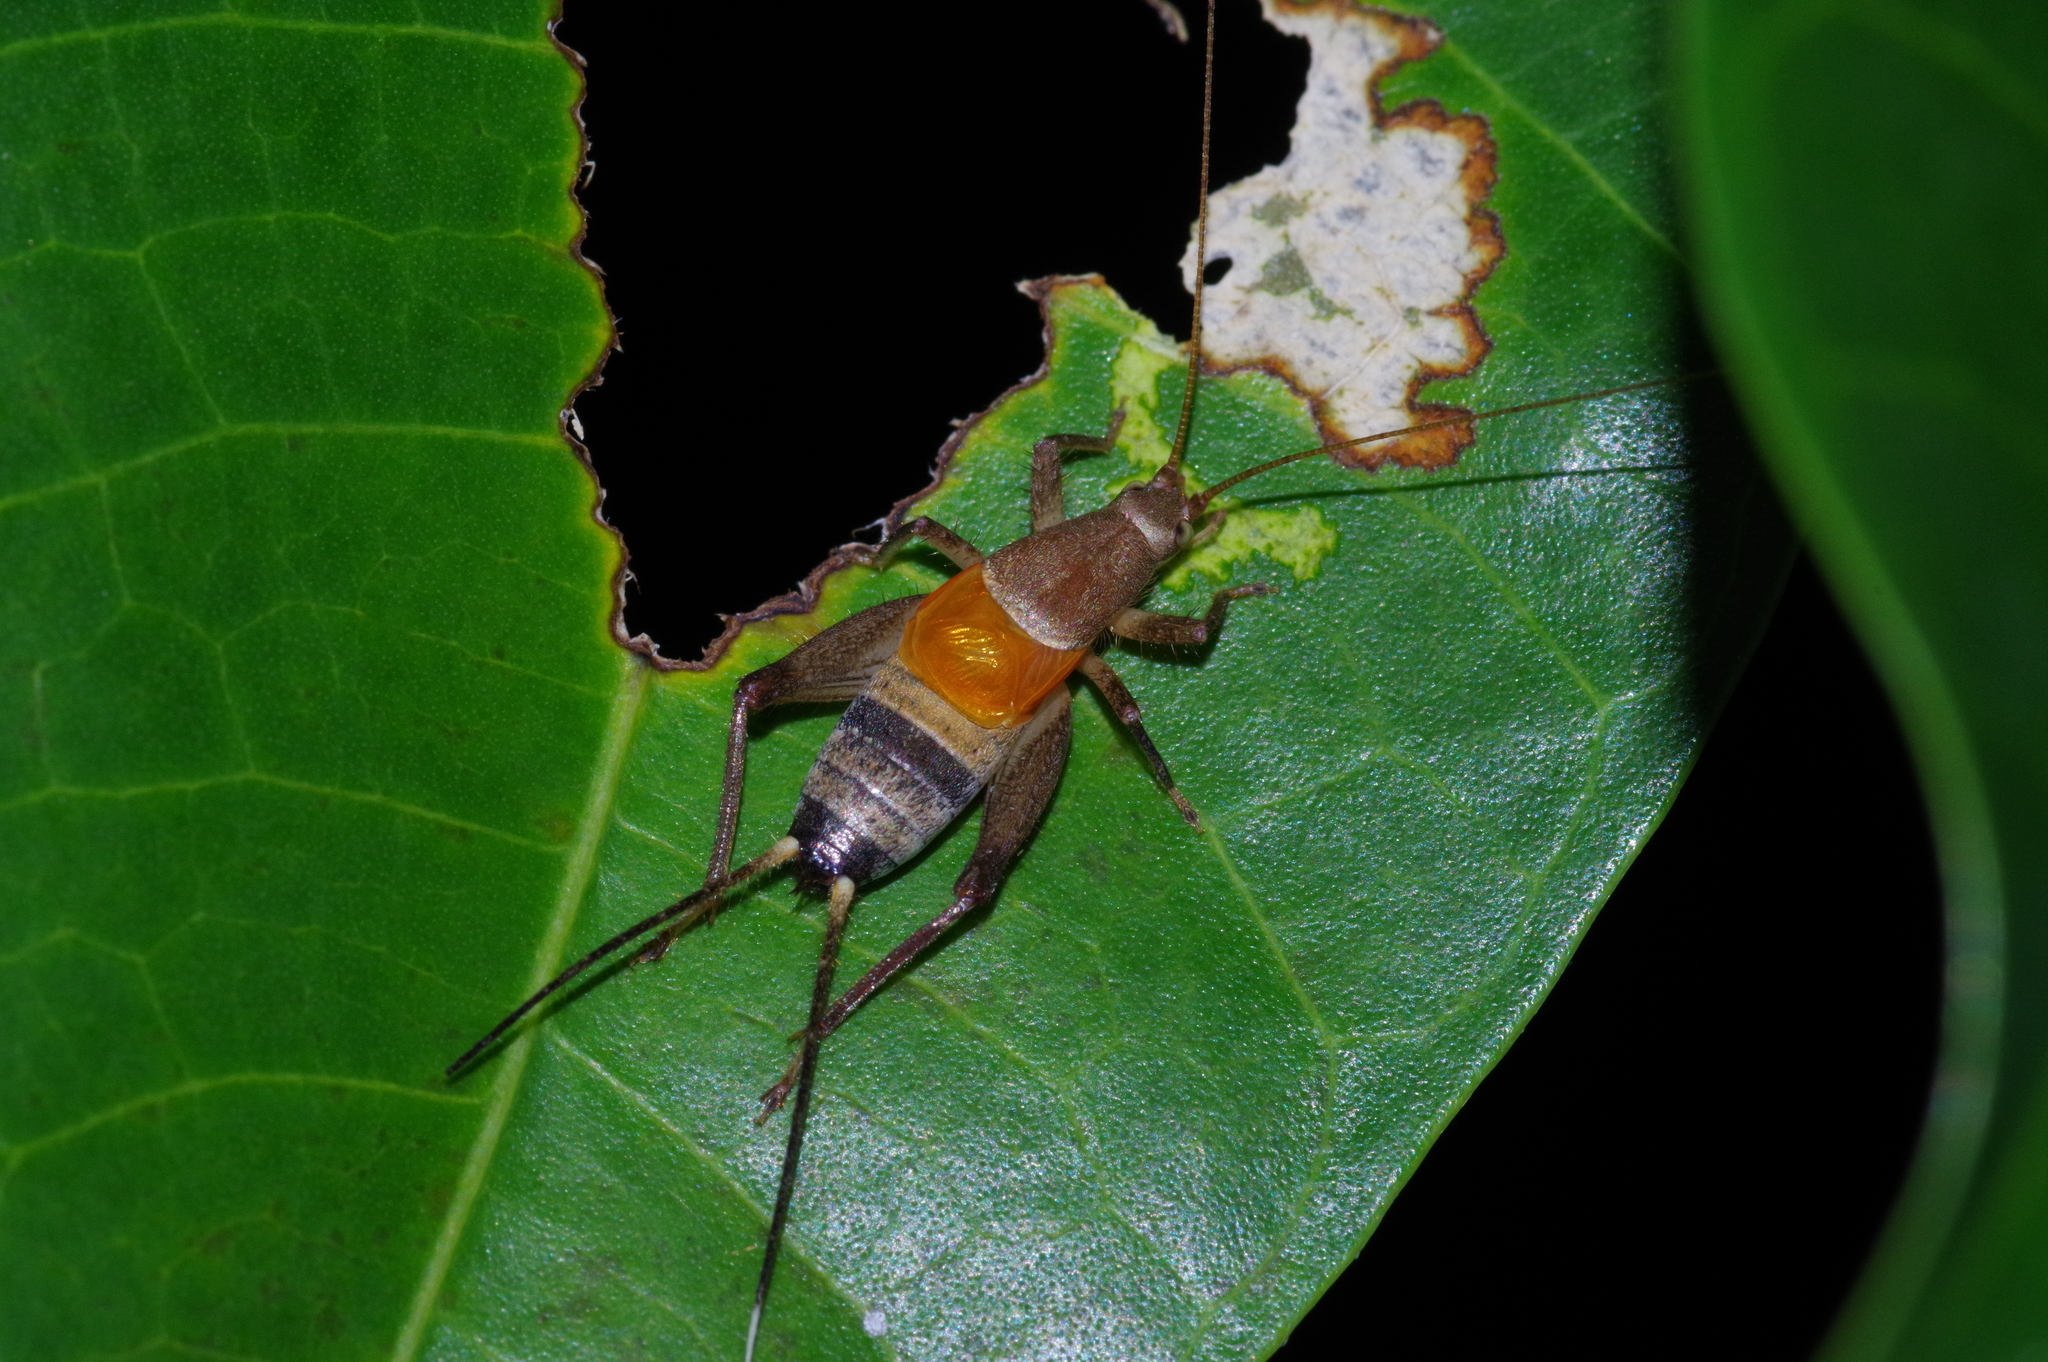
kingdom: Animalia
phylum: Arthropoda
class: Insecta
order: Orthoptera
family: Mogoplistidae
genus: Ornebius
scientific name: Ornebius longipennis
